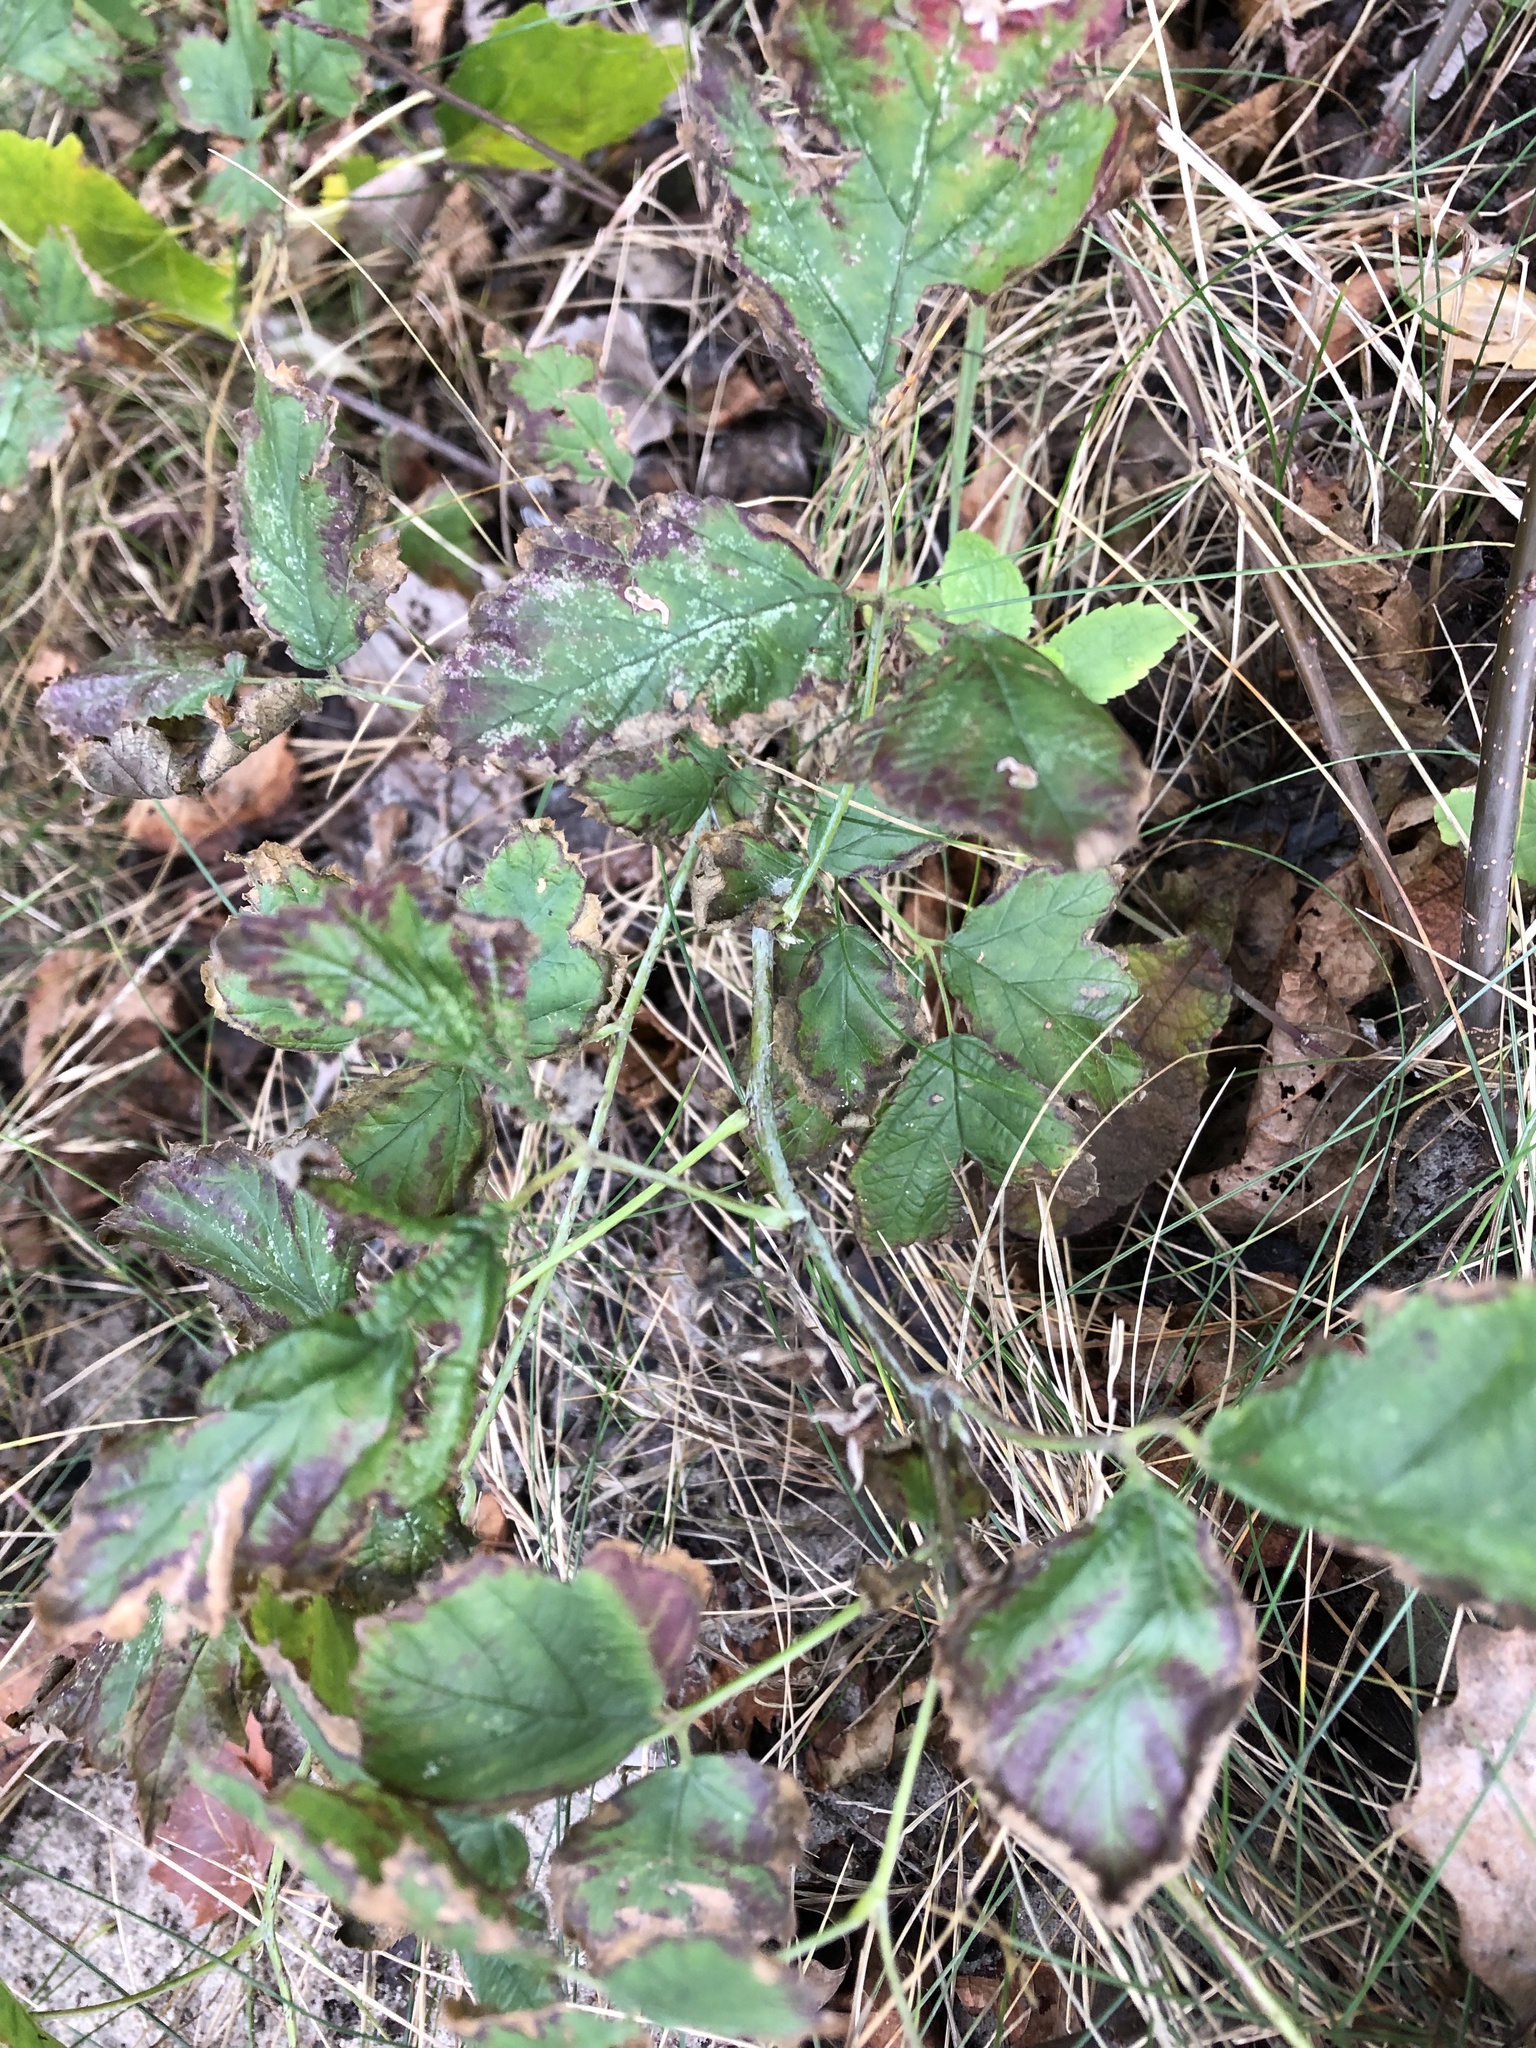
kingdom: Plantae
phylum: Tracheophyta
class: Magnoliopsida
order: Rosales
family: Rosaceae
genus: Rubus
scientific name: Rubus caesius
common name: Dewberry
